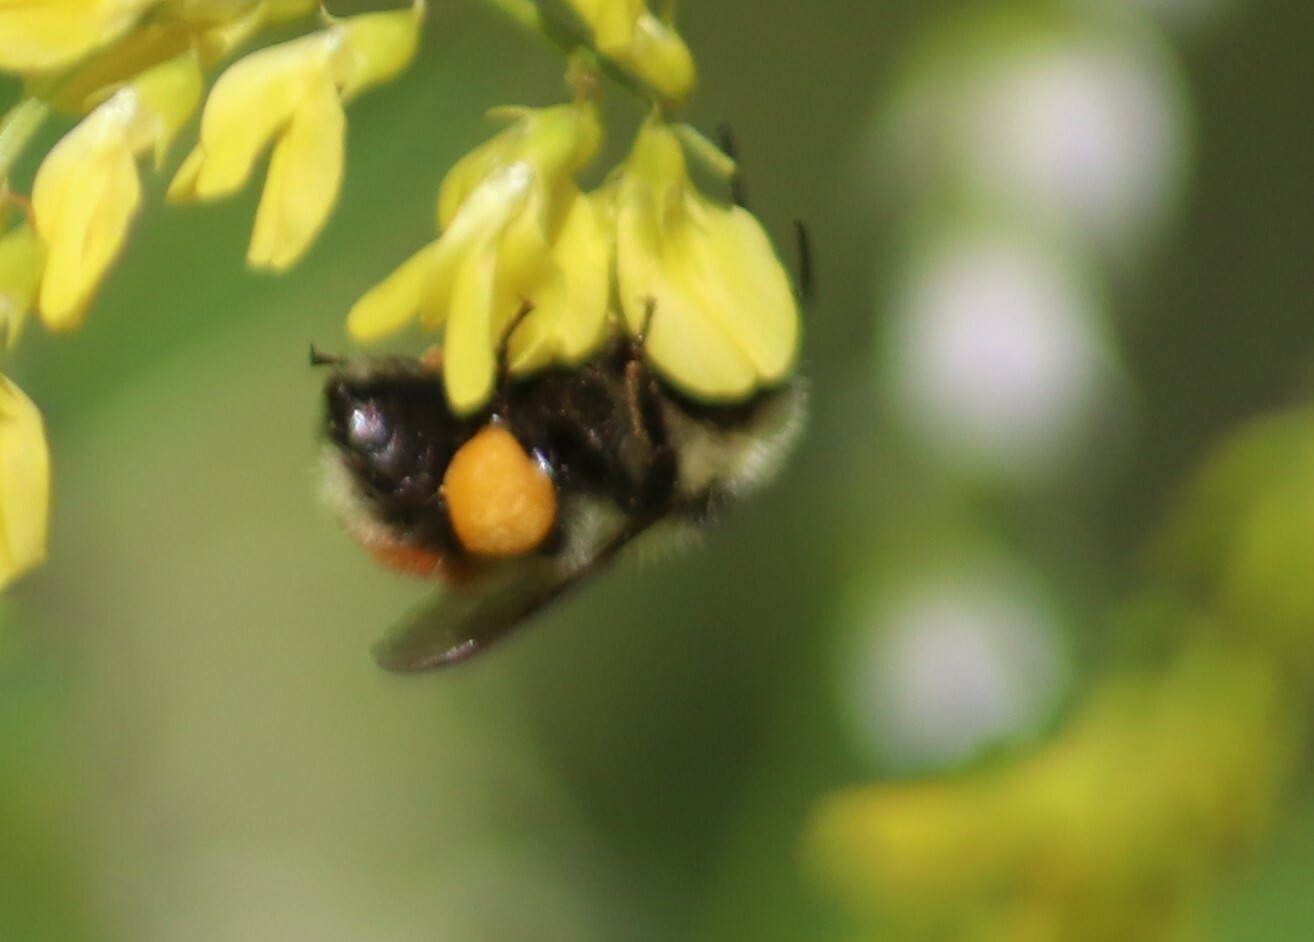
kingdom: Animalia
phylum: Arthropoda
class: Insecta
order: Hymenoptera
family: Apidae
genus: Bombus
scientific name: Bombus rufocinctus
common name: Red-belted bumble bee
